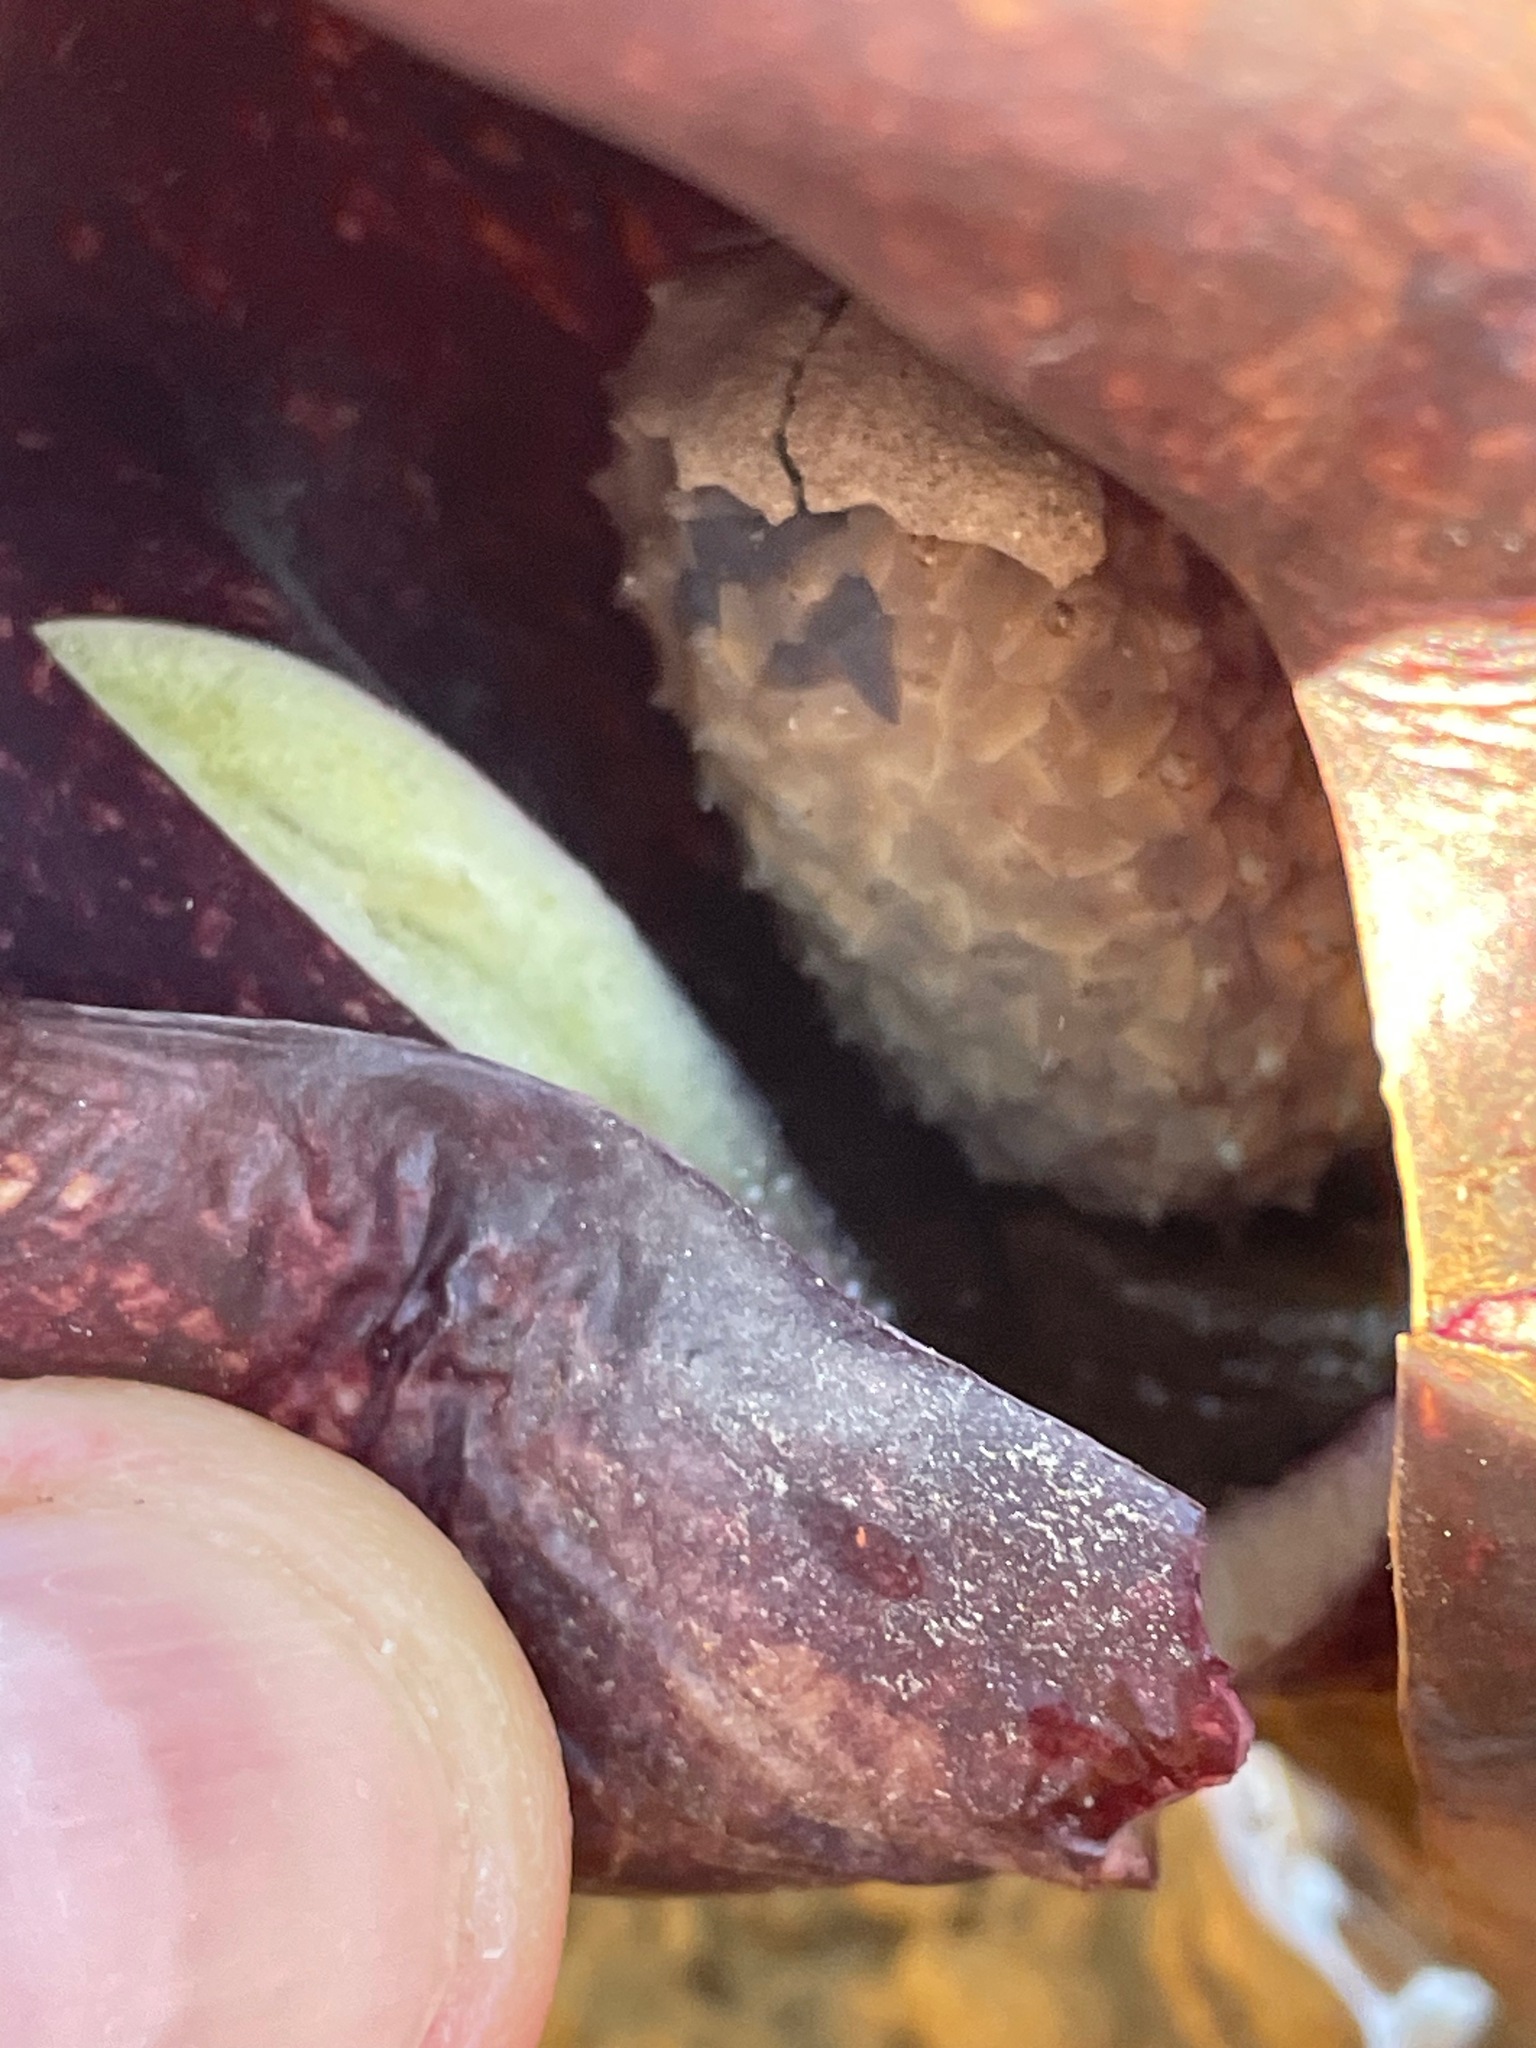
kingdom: Plantae
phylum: Tracheophyta
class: Liliopsida
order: Alismatales
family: Araceae
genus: Symplocarpus
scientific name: Symplocarpus foetidus
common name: Eastern skunk cabbage
